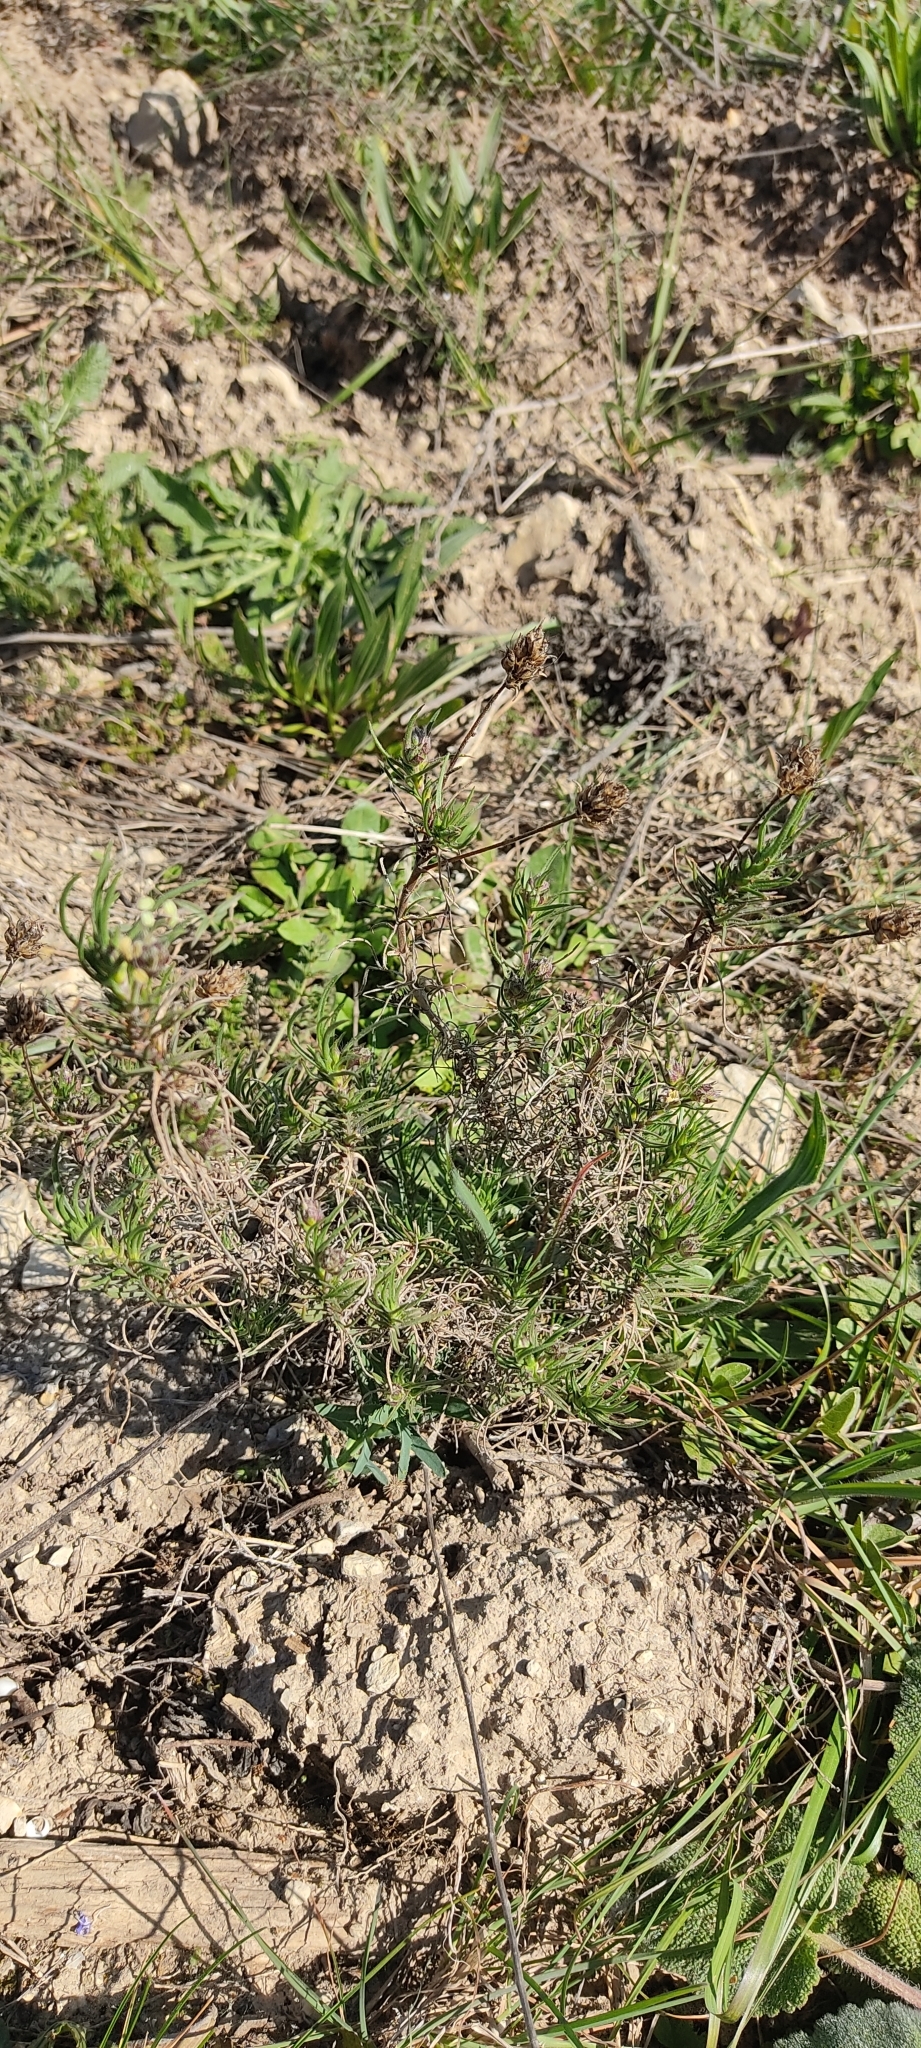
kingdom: Plantae
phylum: Tracheophyta
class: Magnoliopsida
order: Lamiales
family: Plantaginaceae
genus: Plantago
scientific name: Plantago sempervirens
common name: Shrubby plantain
